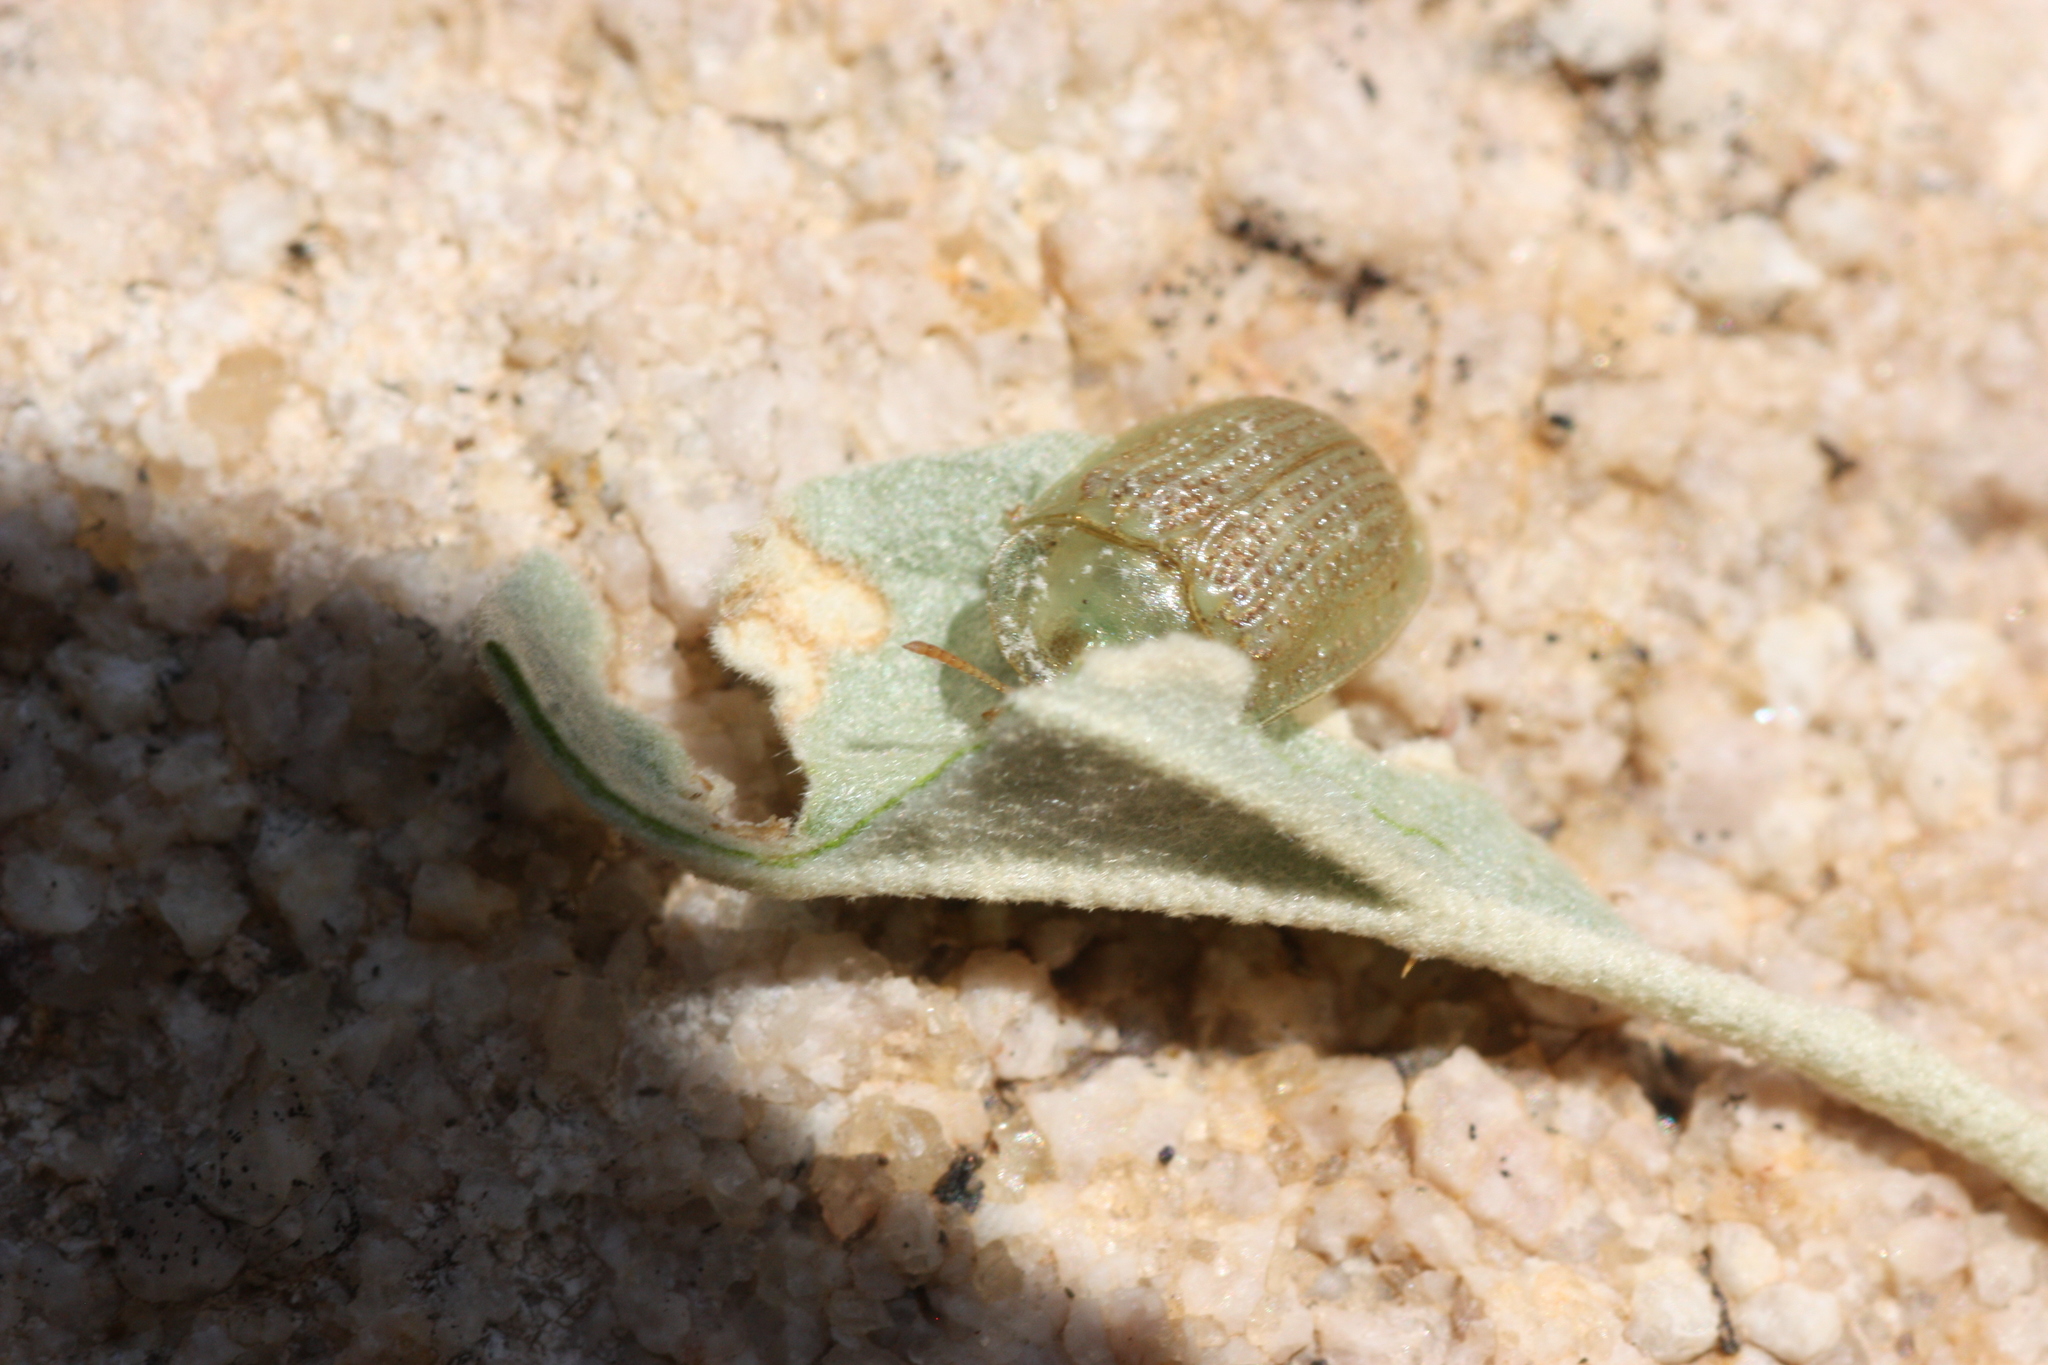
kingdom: Animalia
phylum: Arthropoda
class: Insecta
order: Coleoptera
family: Chrysomelidae
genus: Gratiana
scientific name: Gratiana pallidula
